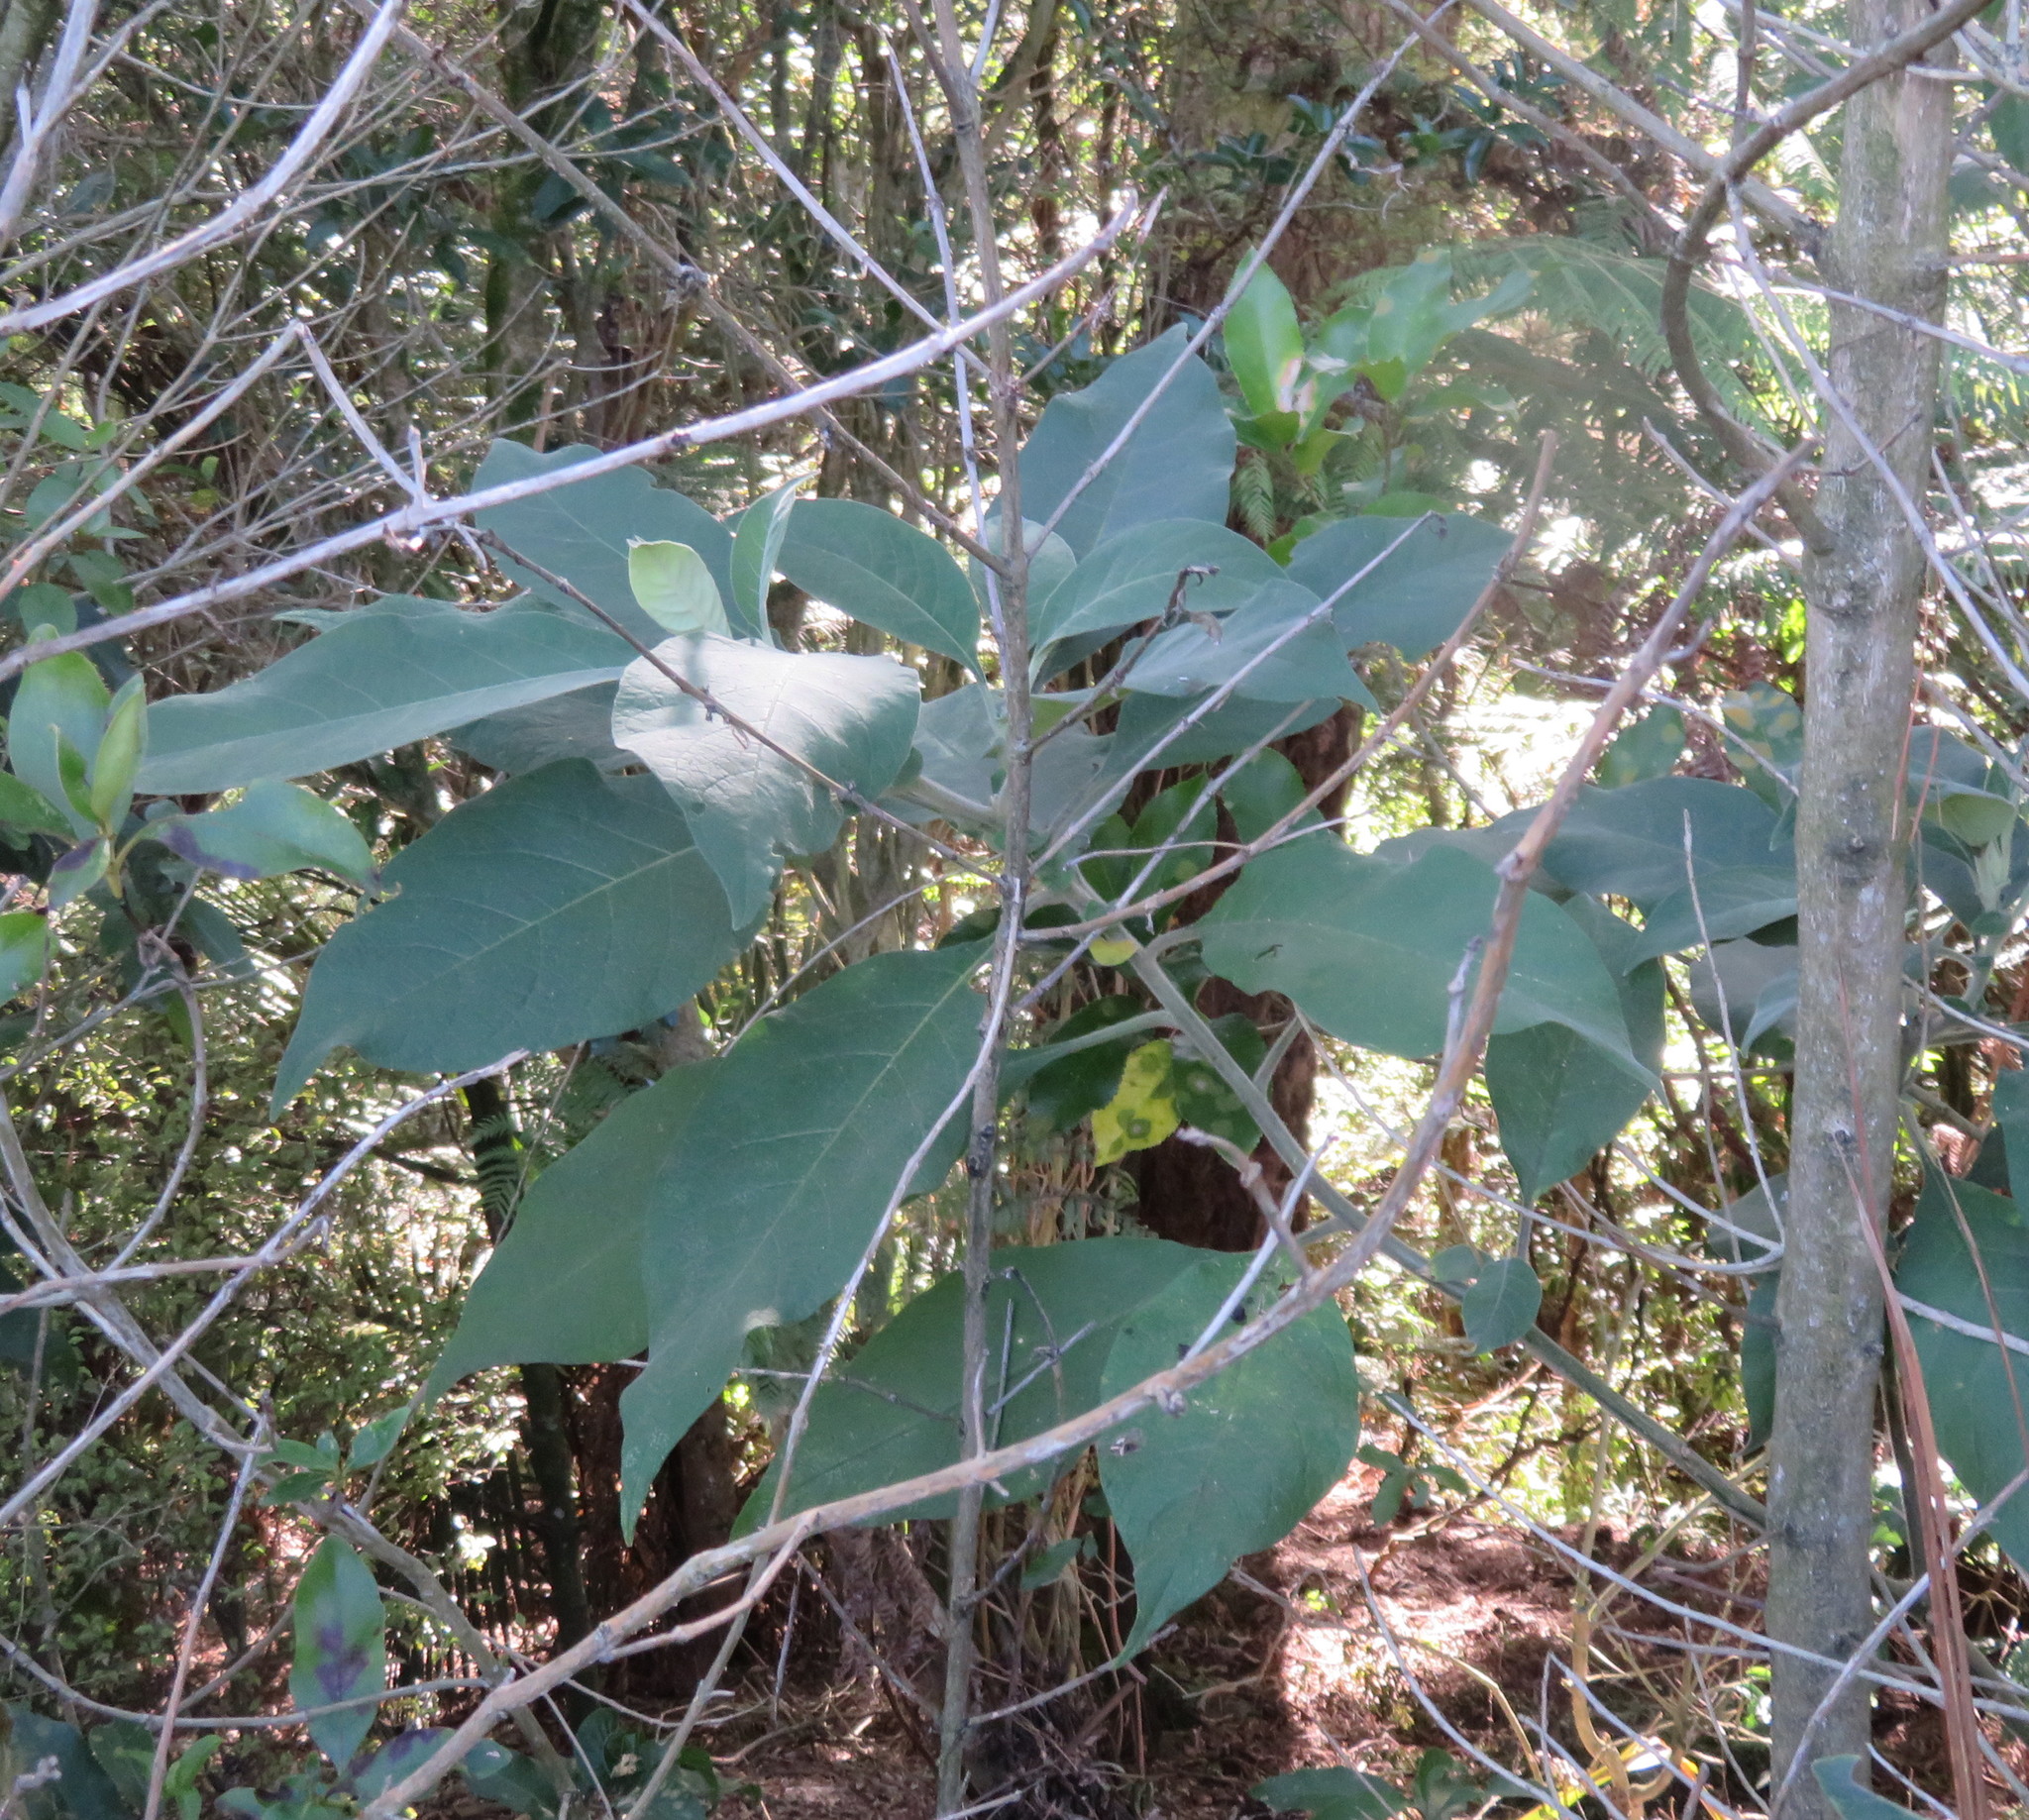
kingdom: Plantae
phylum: Tracheophyta
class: Magnoliopsida
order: Solanales
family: Solanaceae
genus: Solanum
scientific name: Solanum mauritianum
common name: Earleaf nightshade
